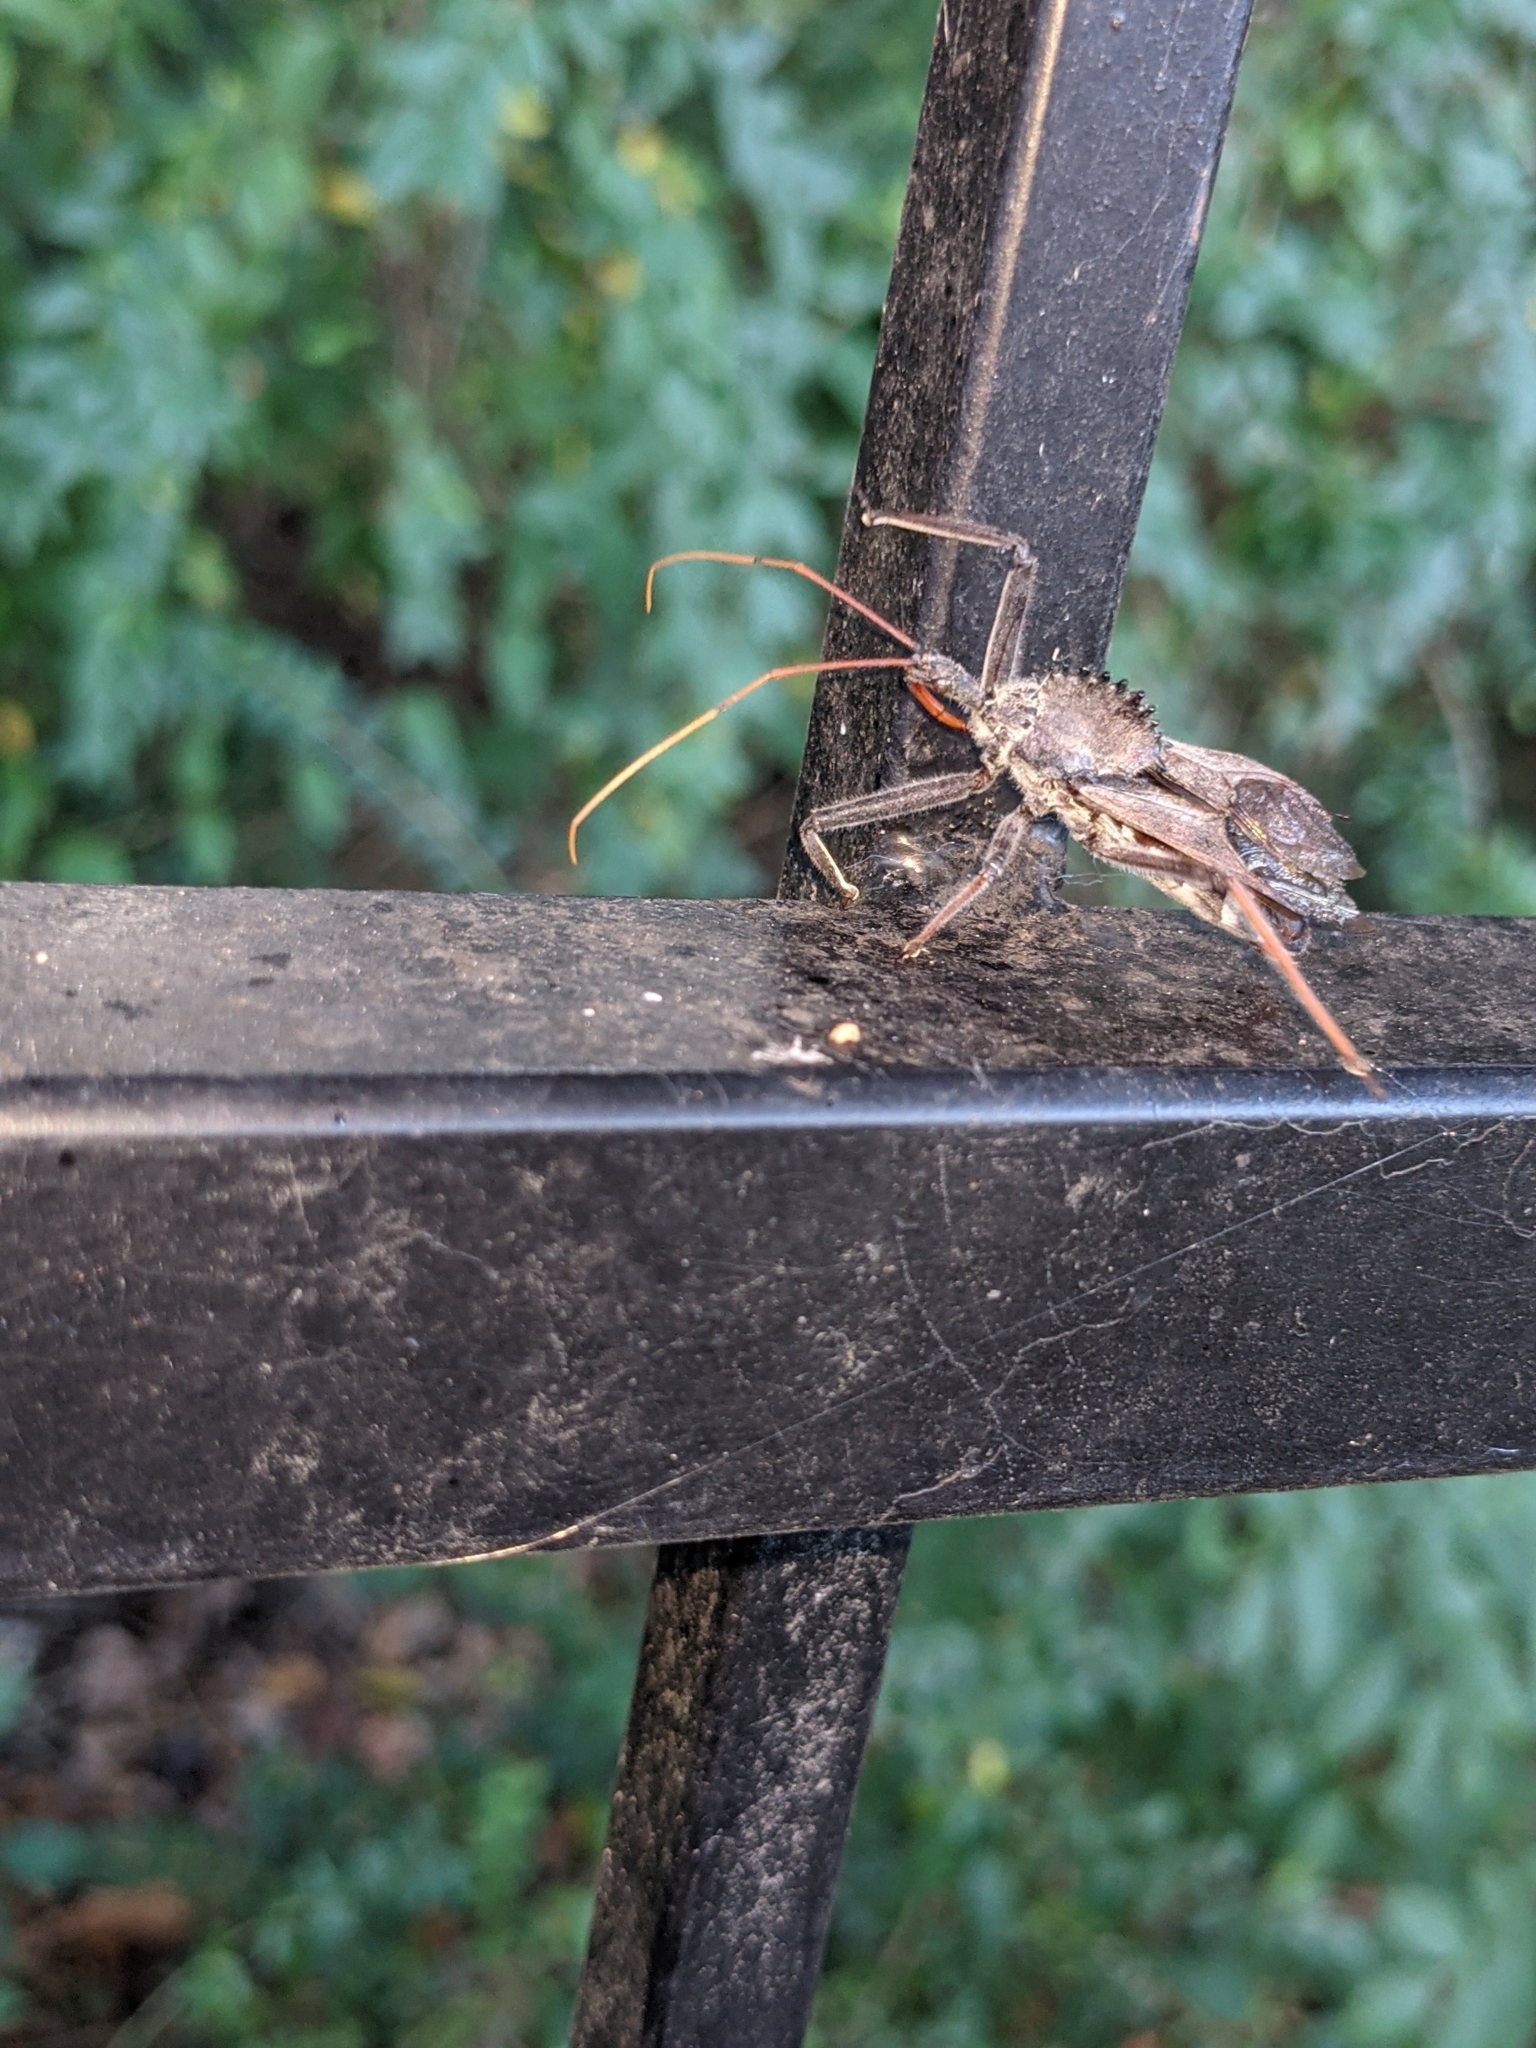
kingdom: Animalia
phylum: Arthropoda
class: Insecta
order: Hemiptera
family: Reduviidae
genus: Arilus
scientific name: Arilus cristatus
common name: North american wheel bug
